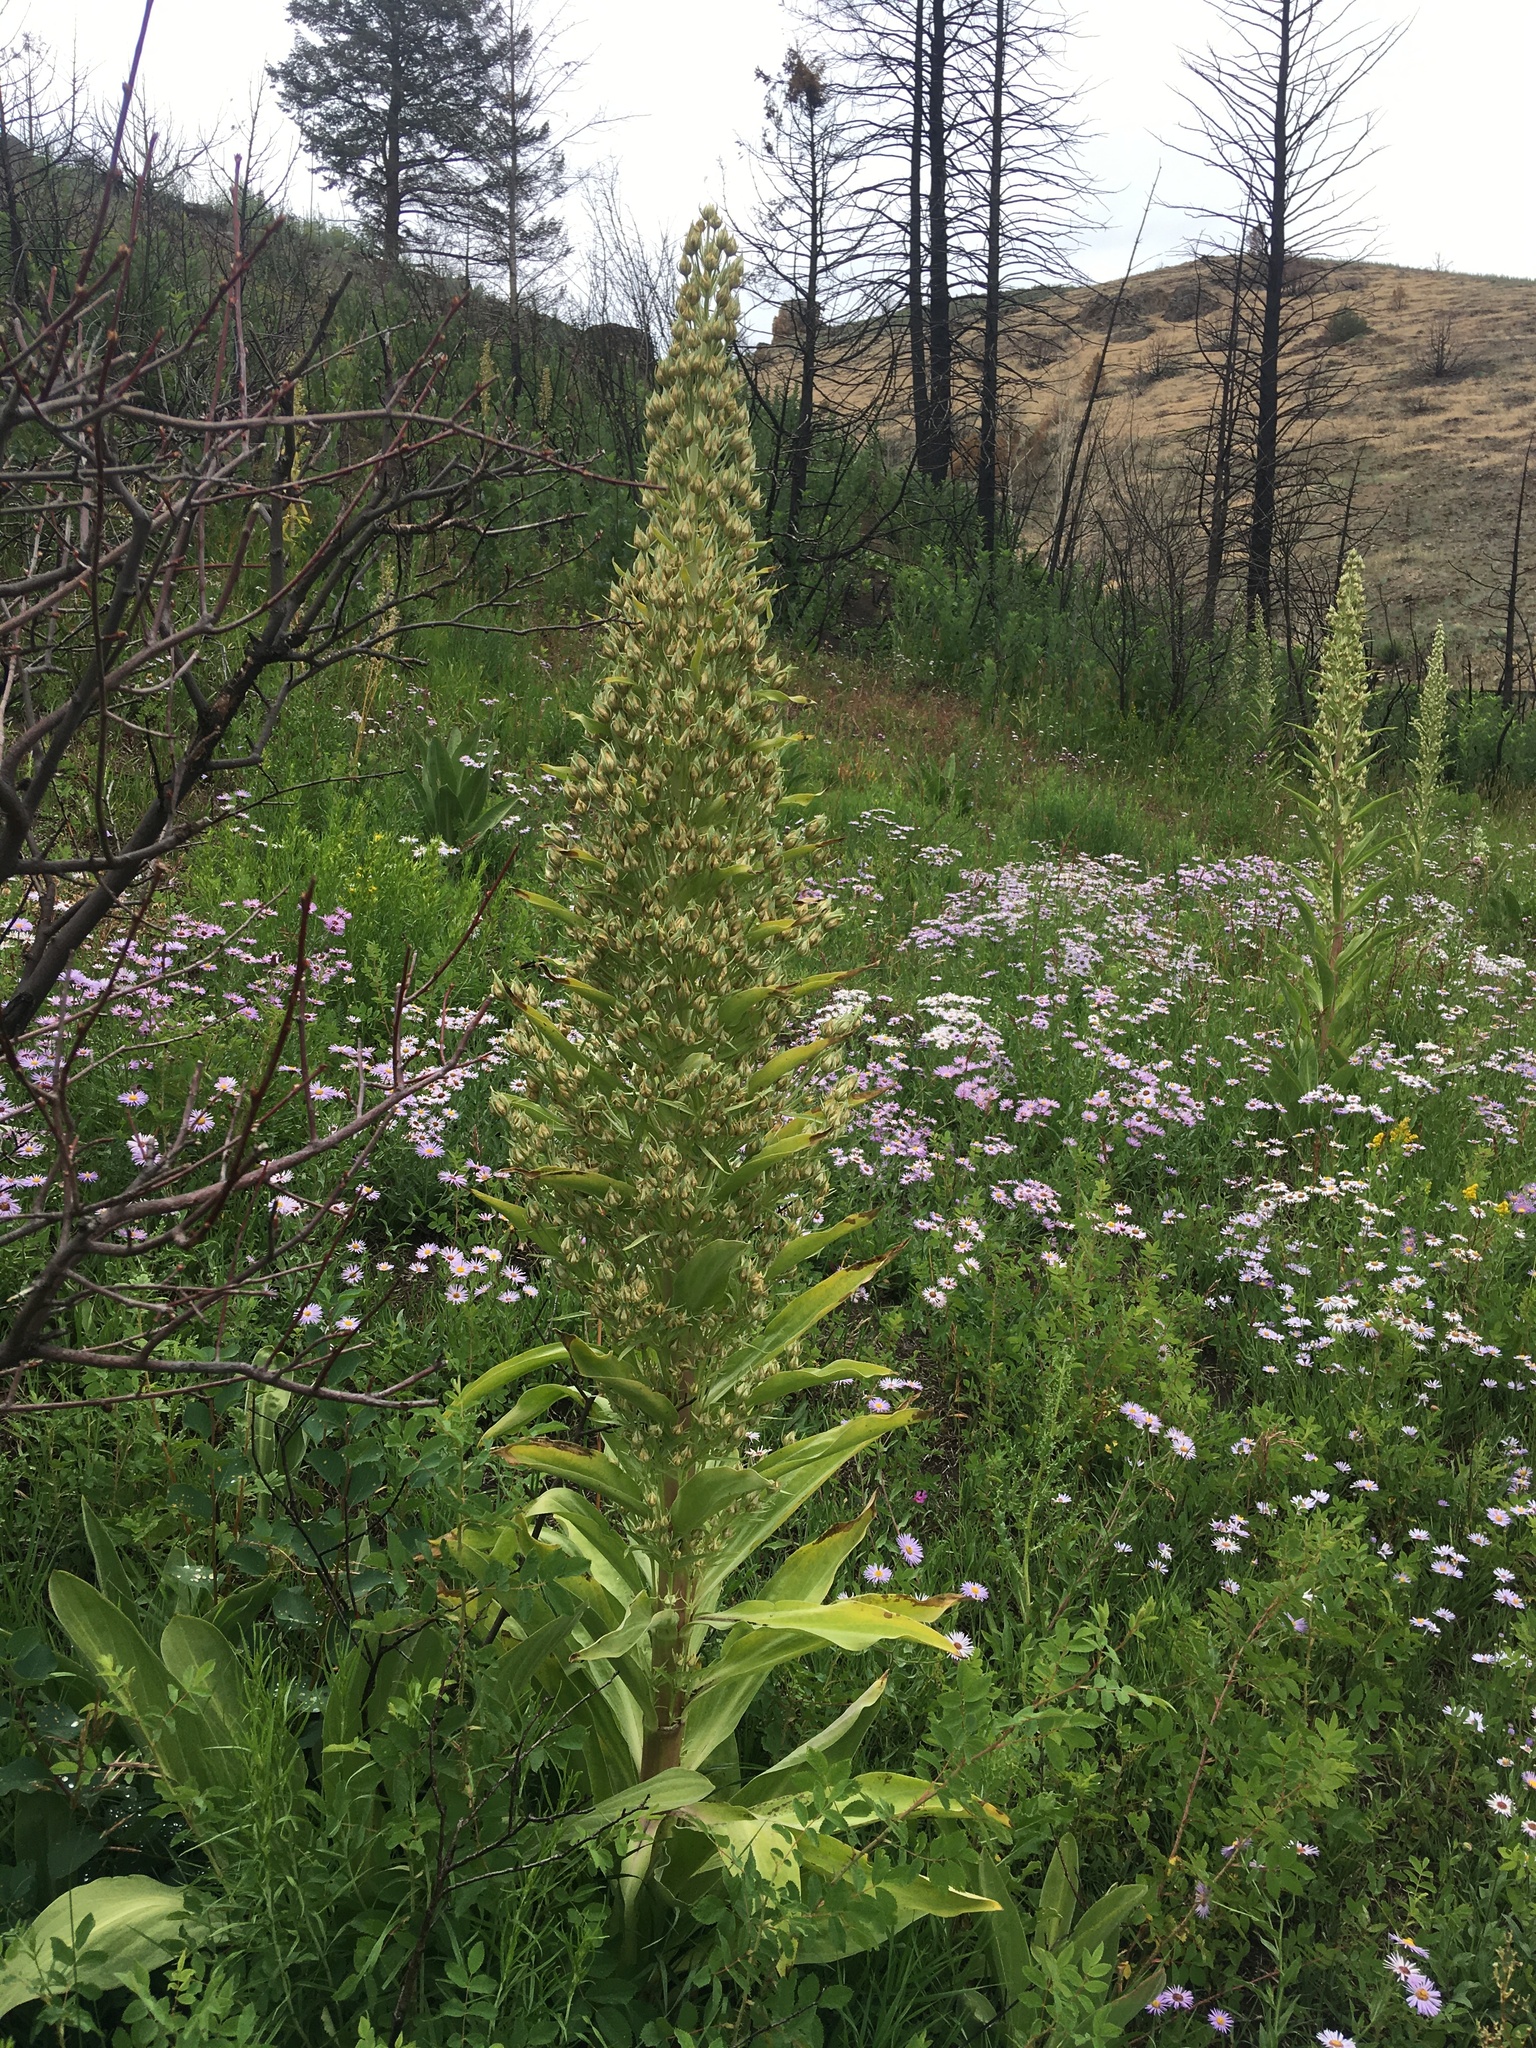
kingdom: Plantae
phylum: Tracheophyta
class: Magnoliopsida
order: Gentianales
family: Gentianaceae
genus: Frasera
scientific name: Frasera speciosa
